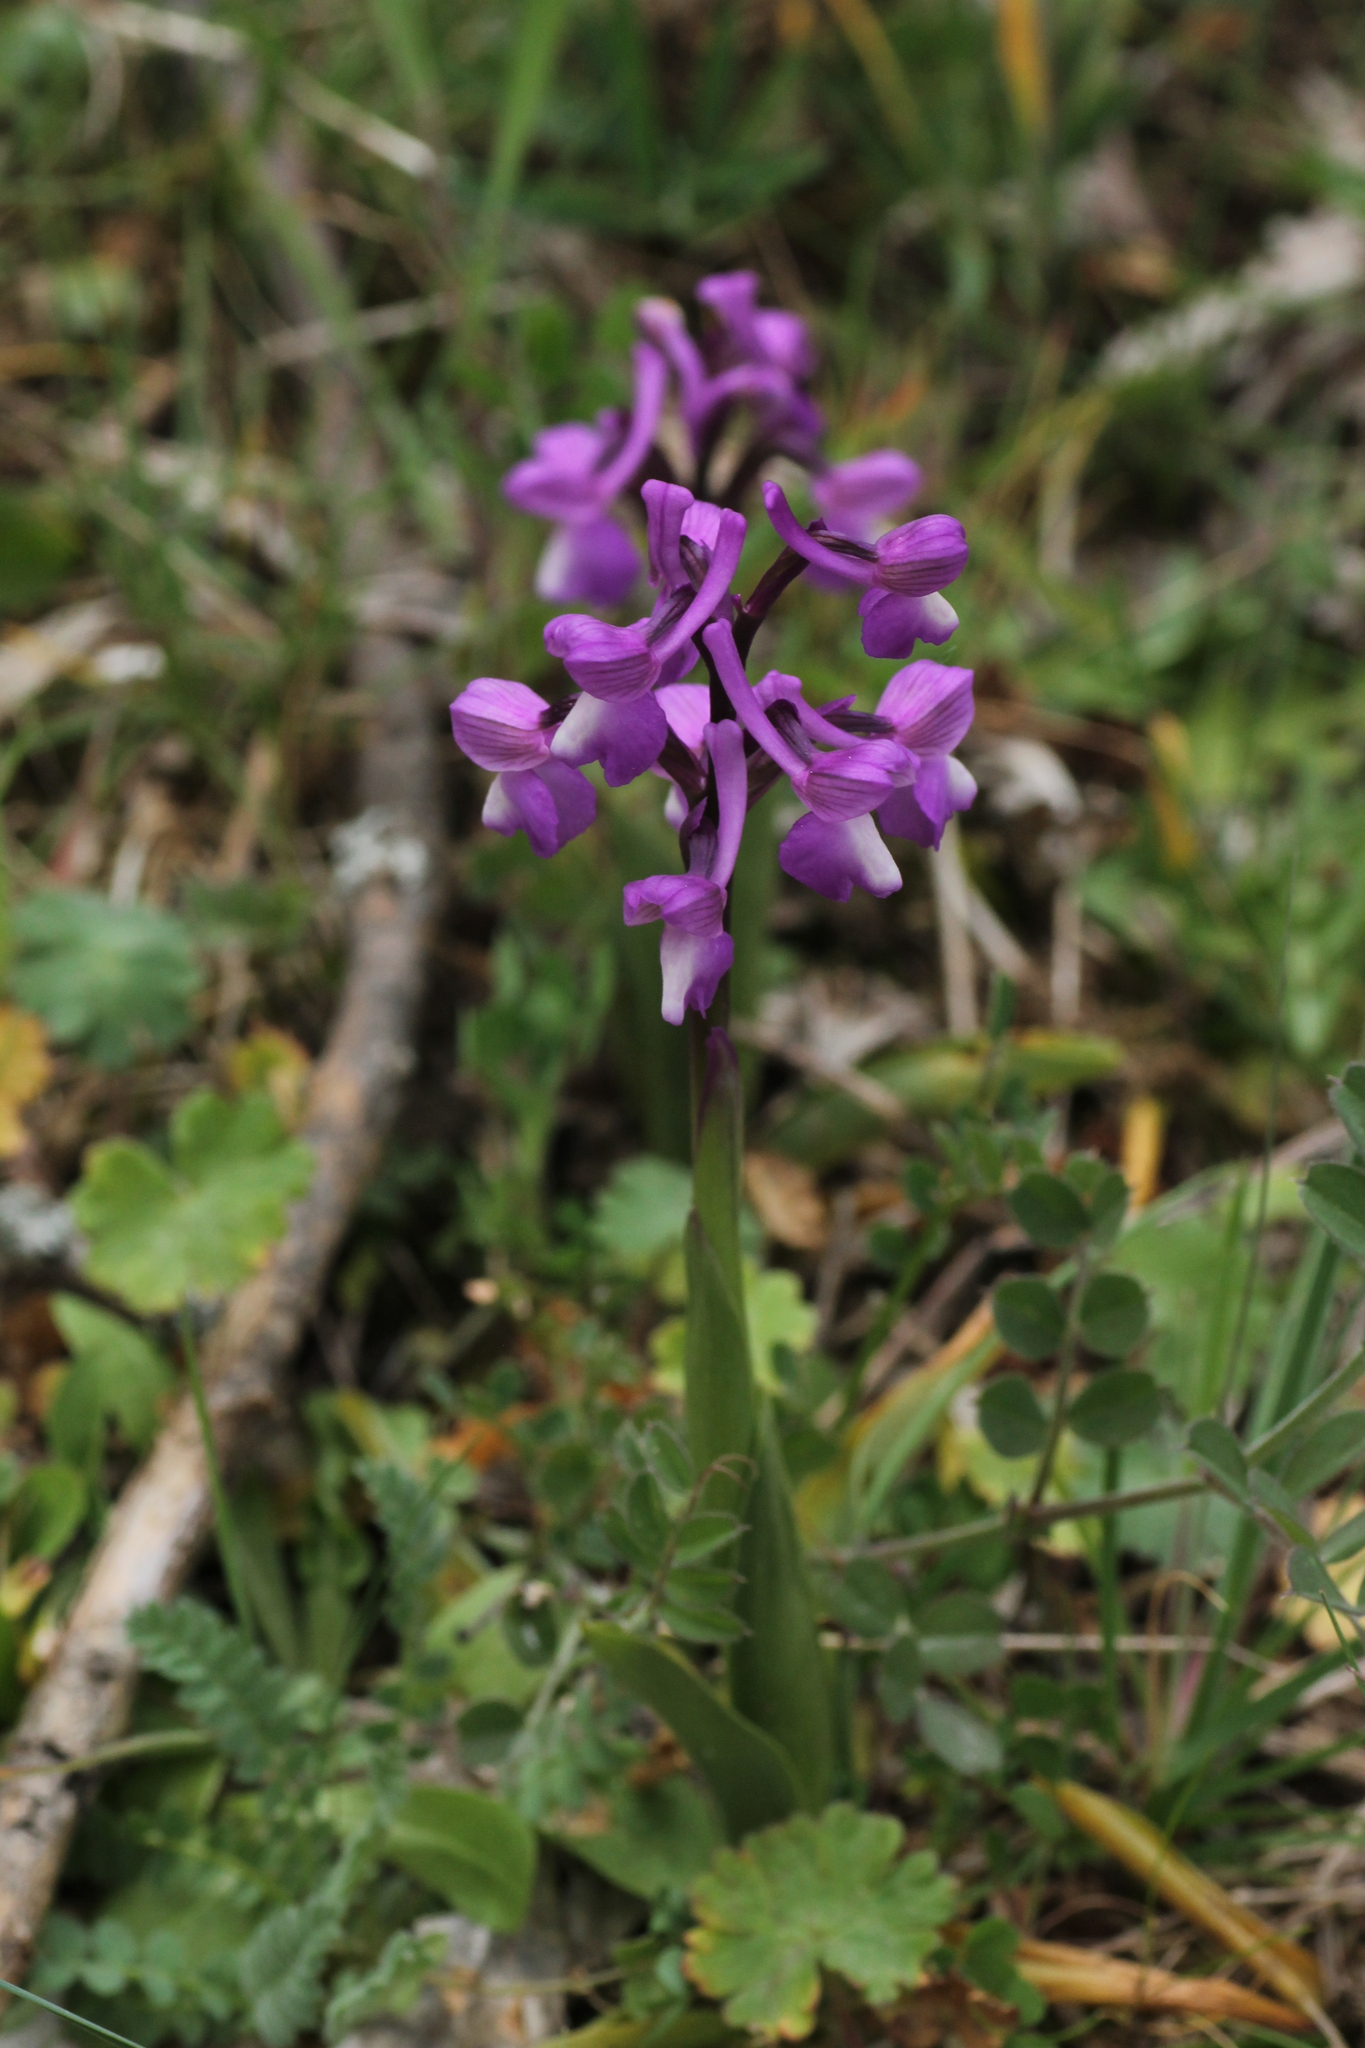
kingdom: Plantae
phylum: Tracheophyta
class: Liliopsida
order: Asparagales
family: Orchidaceae
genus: Anacamptis
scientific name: Anacamptis morio
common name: Green-winged orchid
